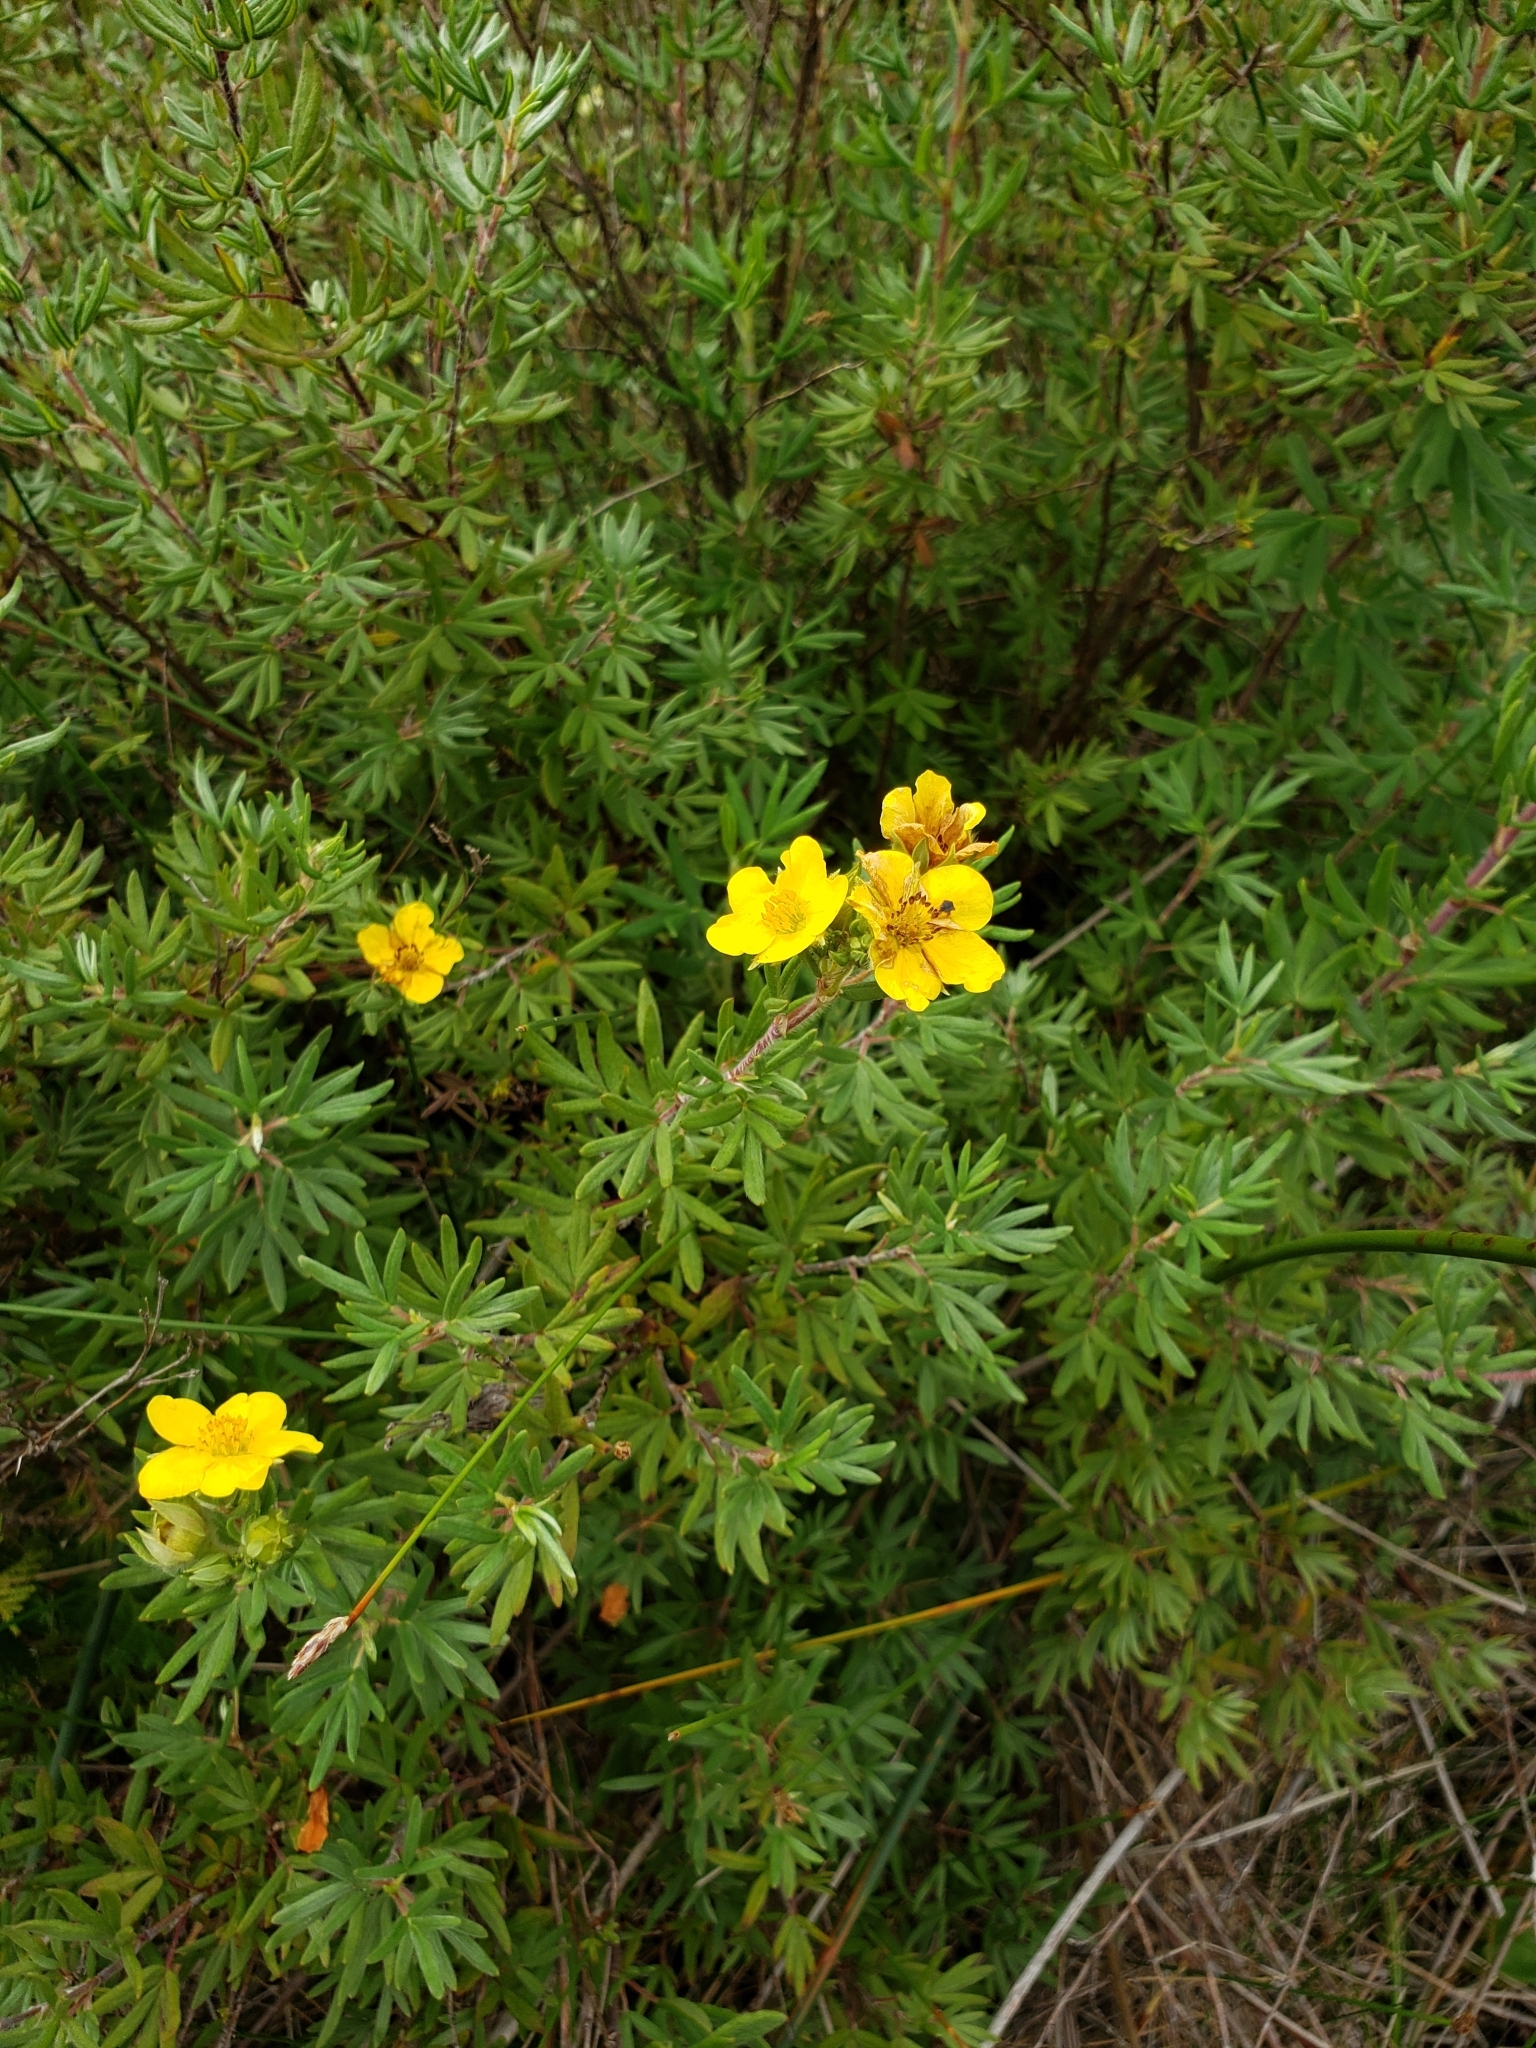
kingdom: Plantae
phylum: Tracheophyta
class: Magnoliopsida
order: Rosales
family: Rosaceae
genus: Dasiphora
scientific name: Dasiphora fruticosa
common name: Shrubby cinquefoil
